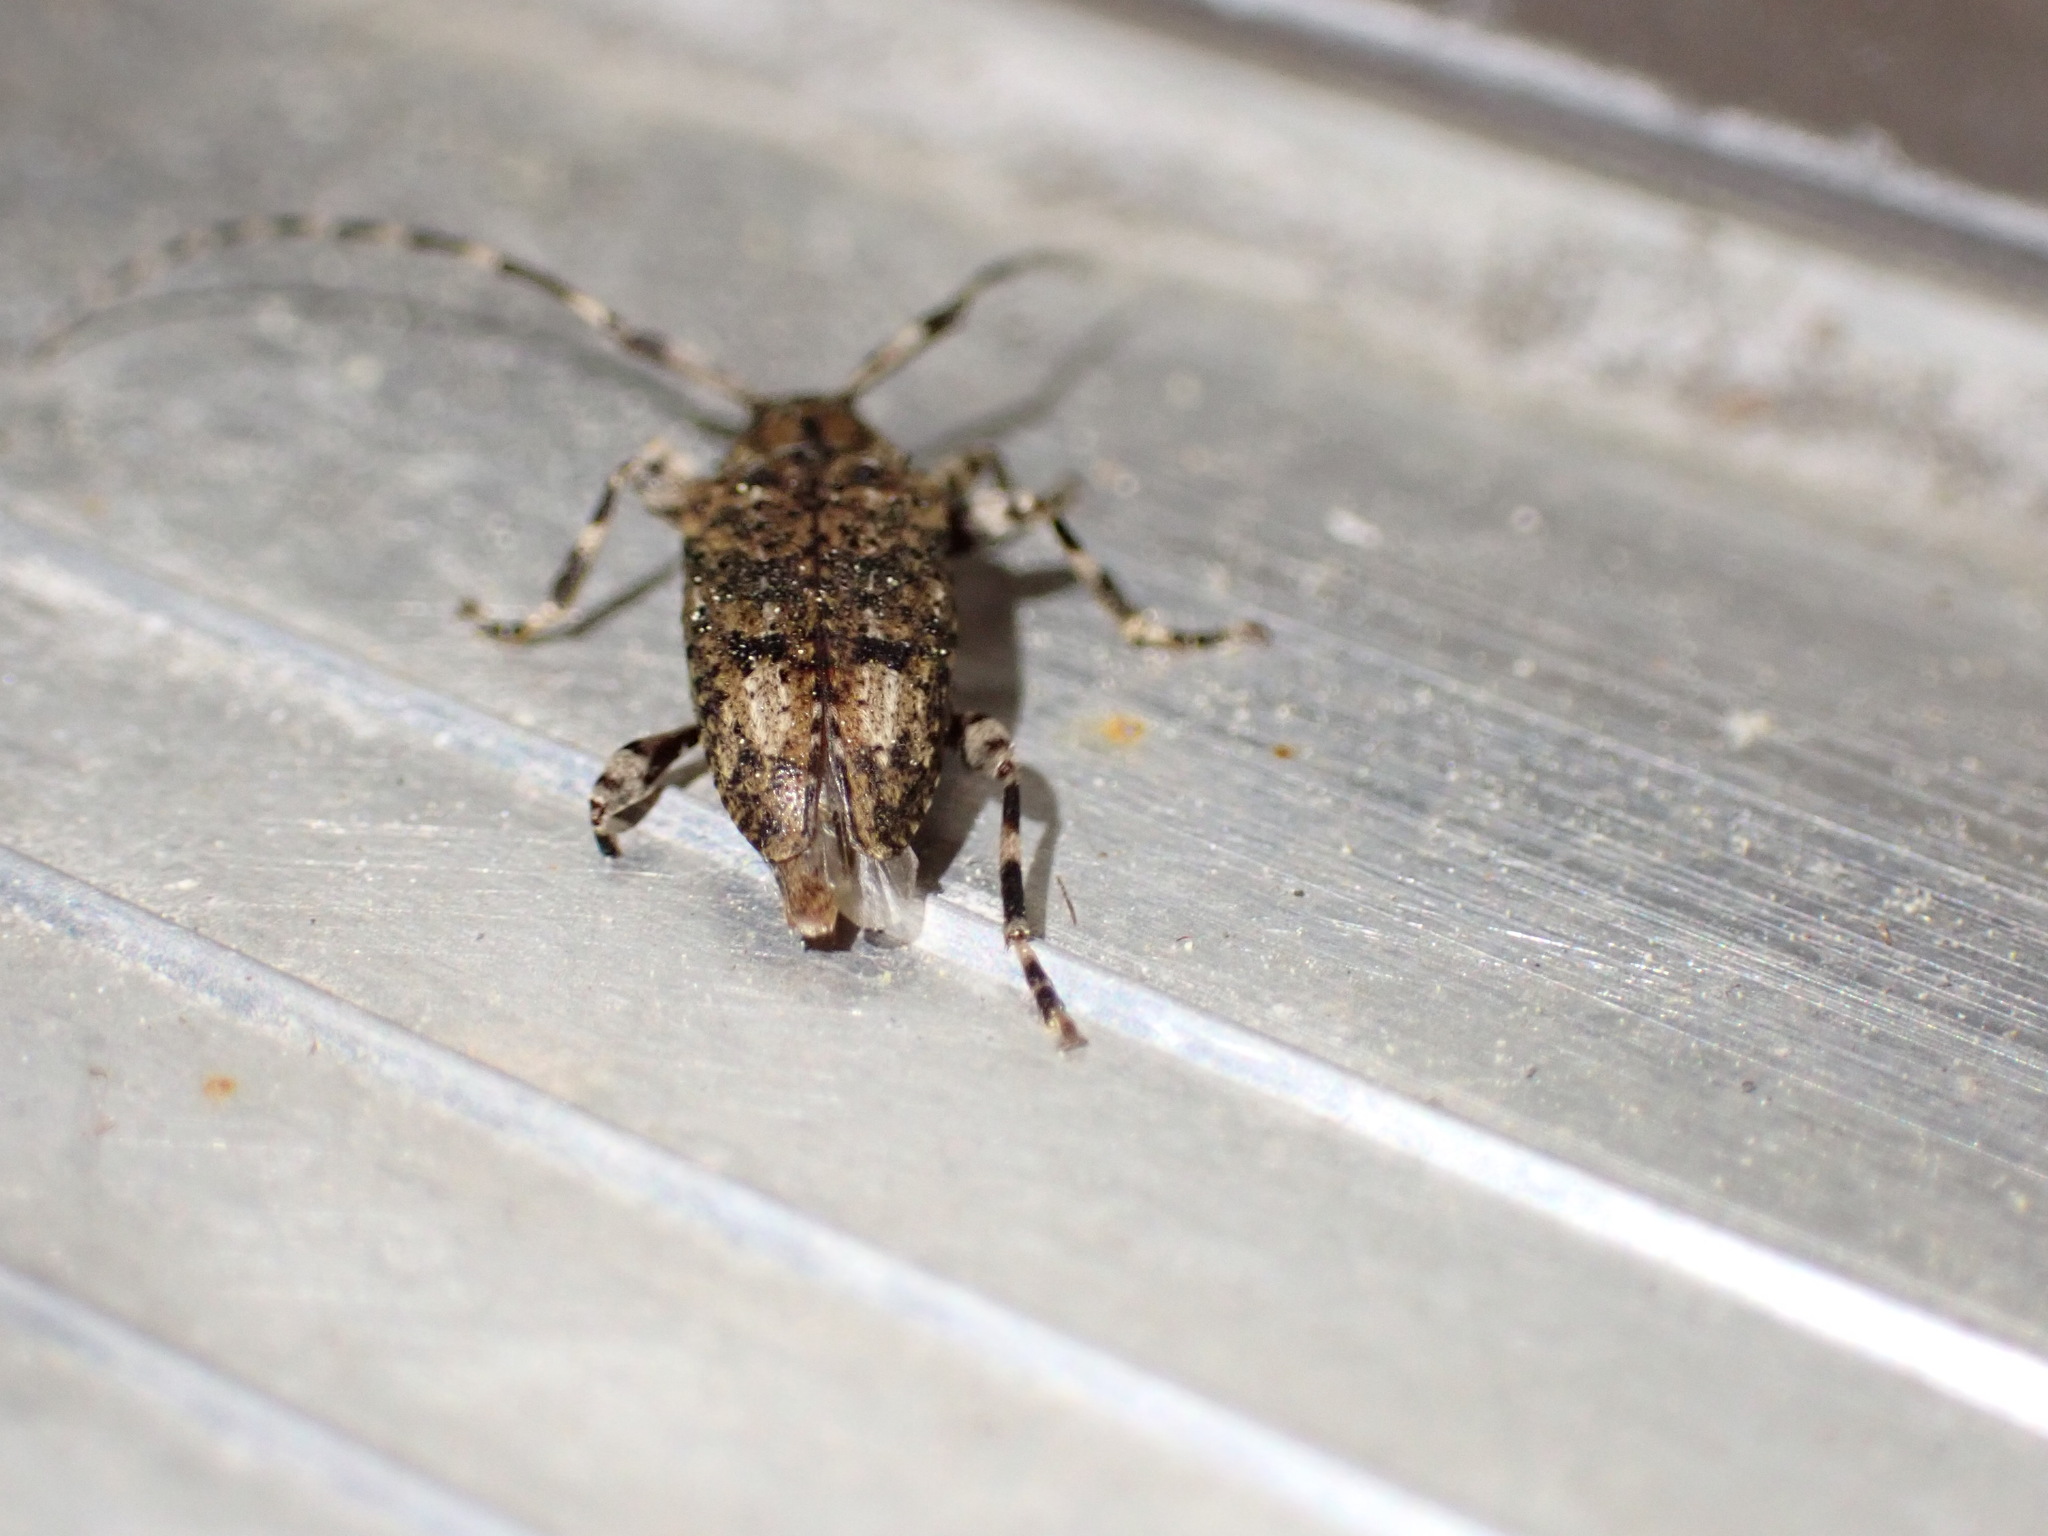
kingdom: Animalia
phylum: Arthropoda
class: Insecta
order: Coleoptera
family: Cerambycidae
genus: Astyleiopus
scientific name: Astyleiopus variegatus
